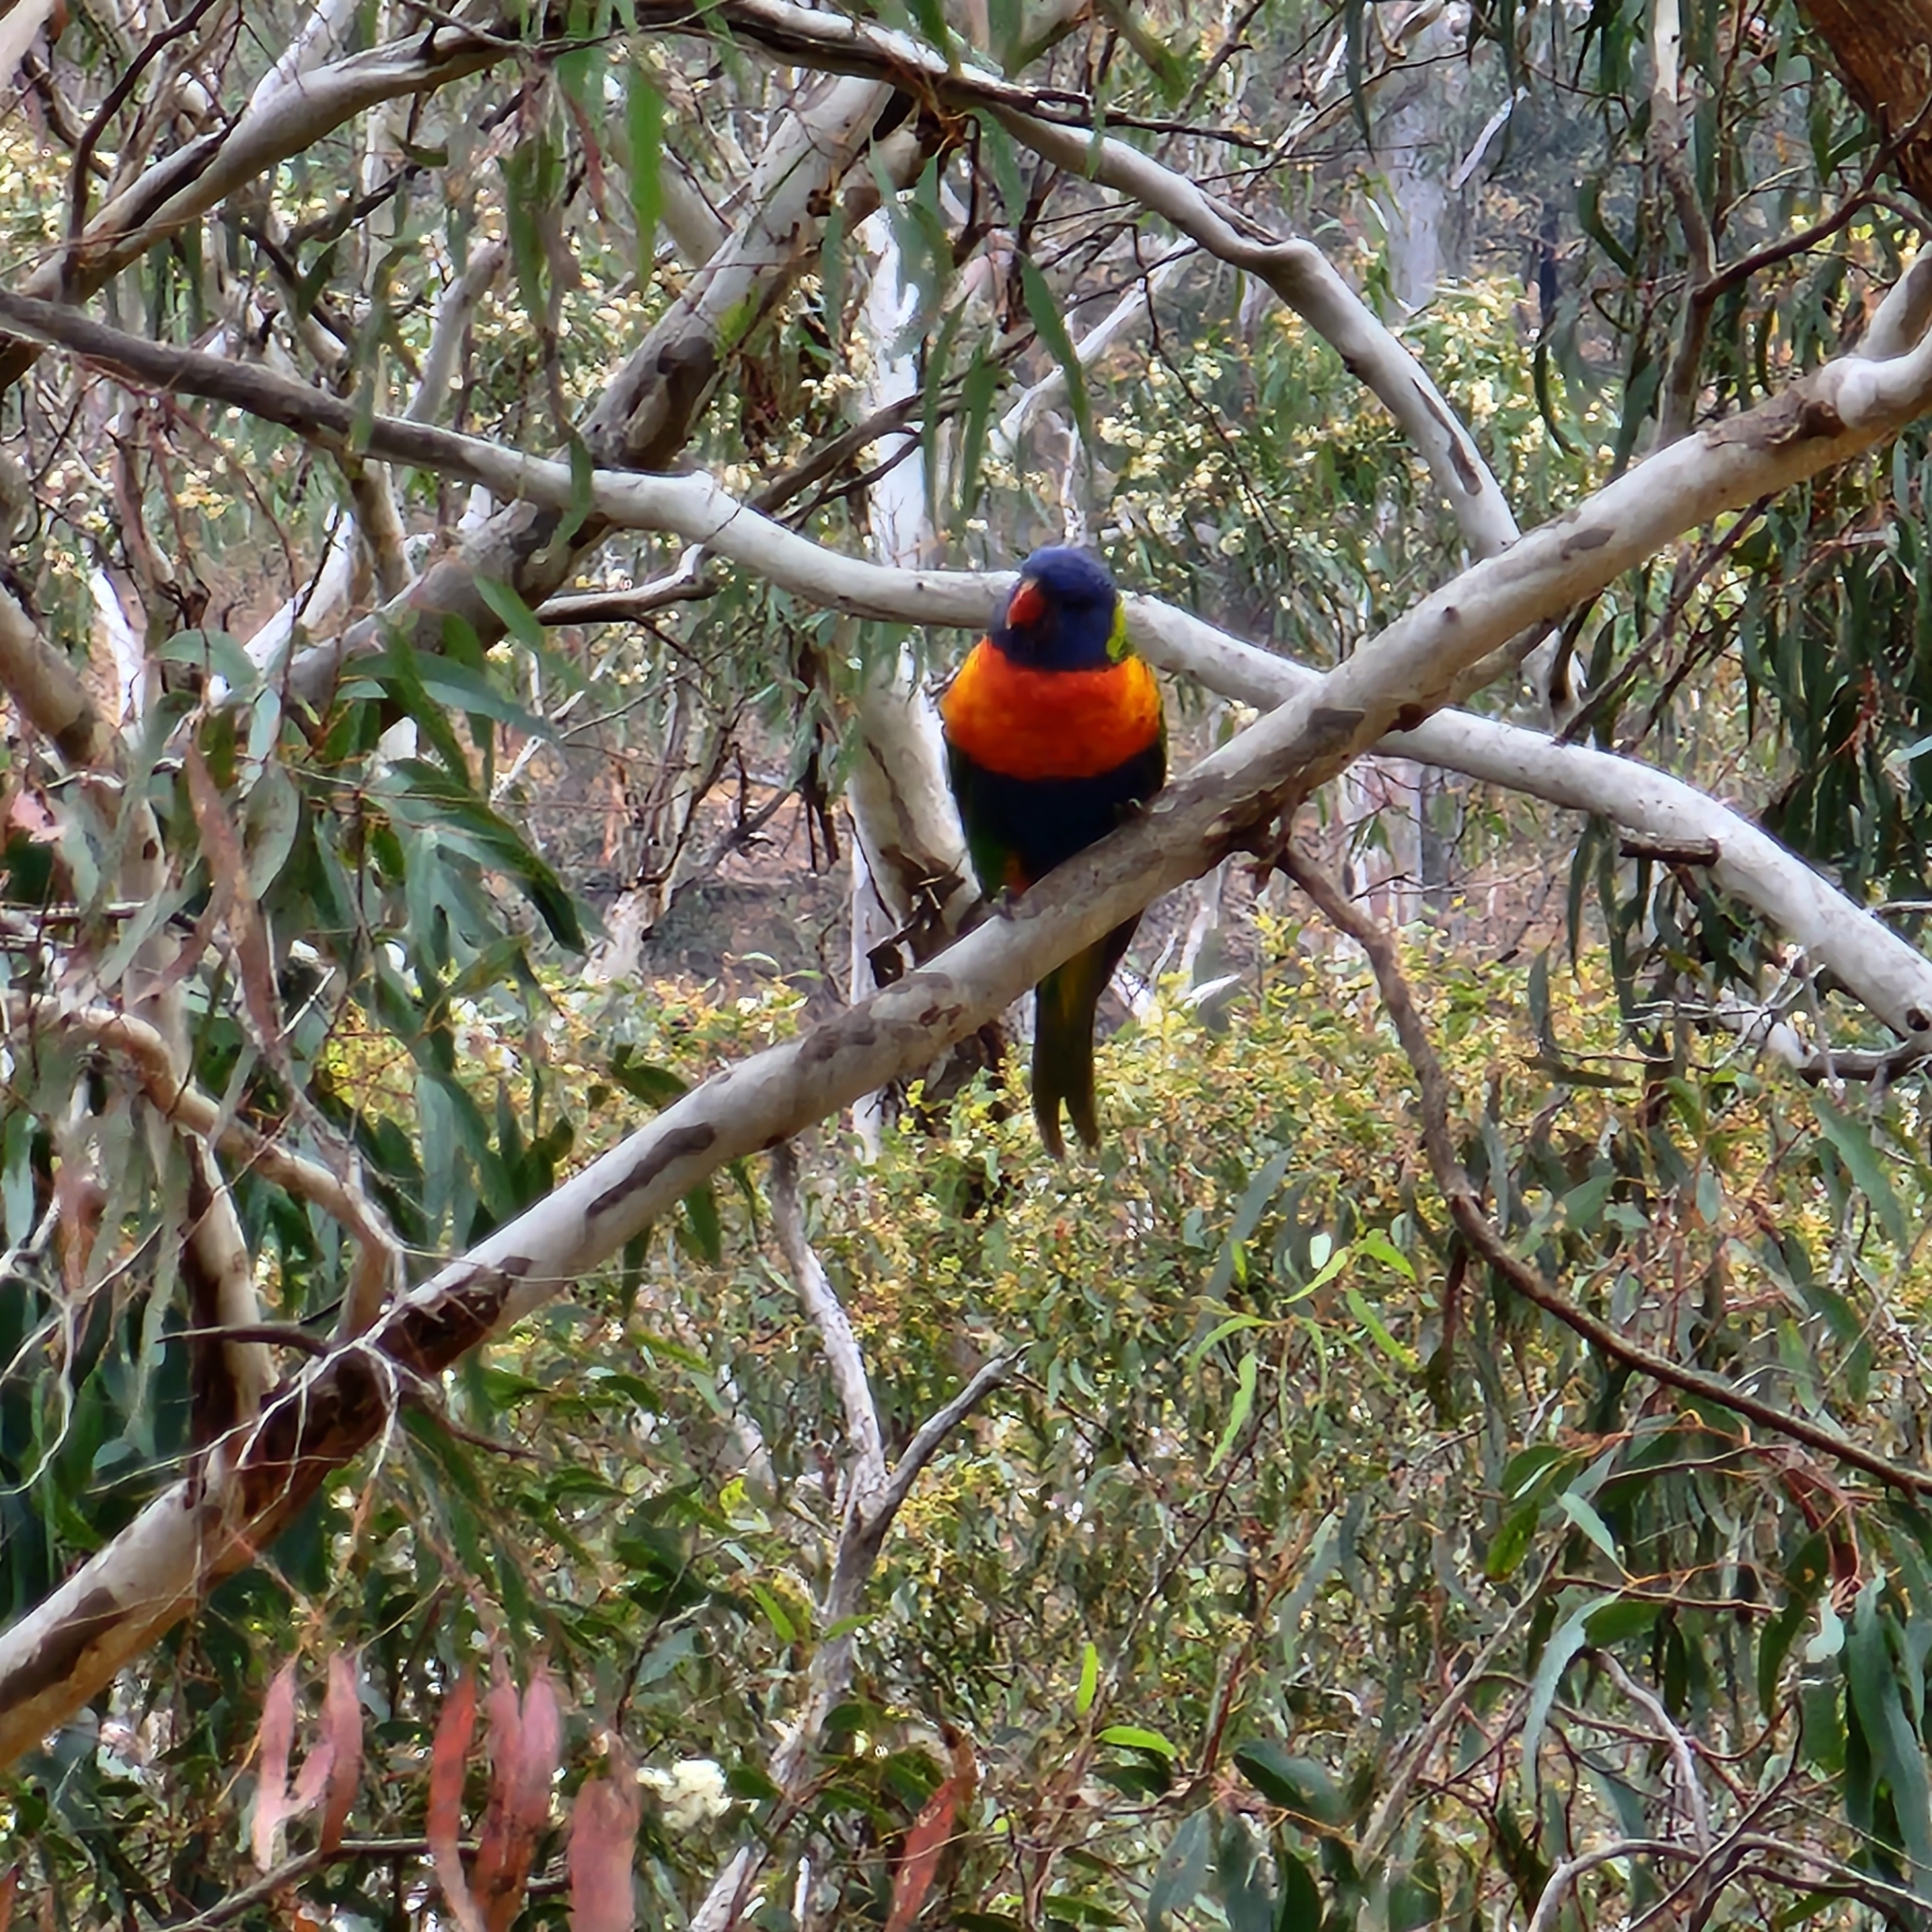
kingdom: Animalia
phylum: Chordata
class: Aves
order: Psittaciformes
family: Psittacidae
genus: Trichoglossus
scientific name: Trichoglossus haematodus
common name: Coconut lorikeet
